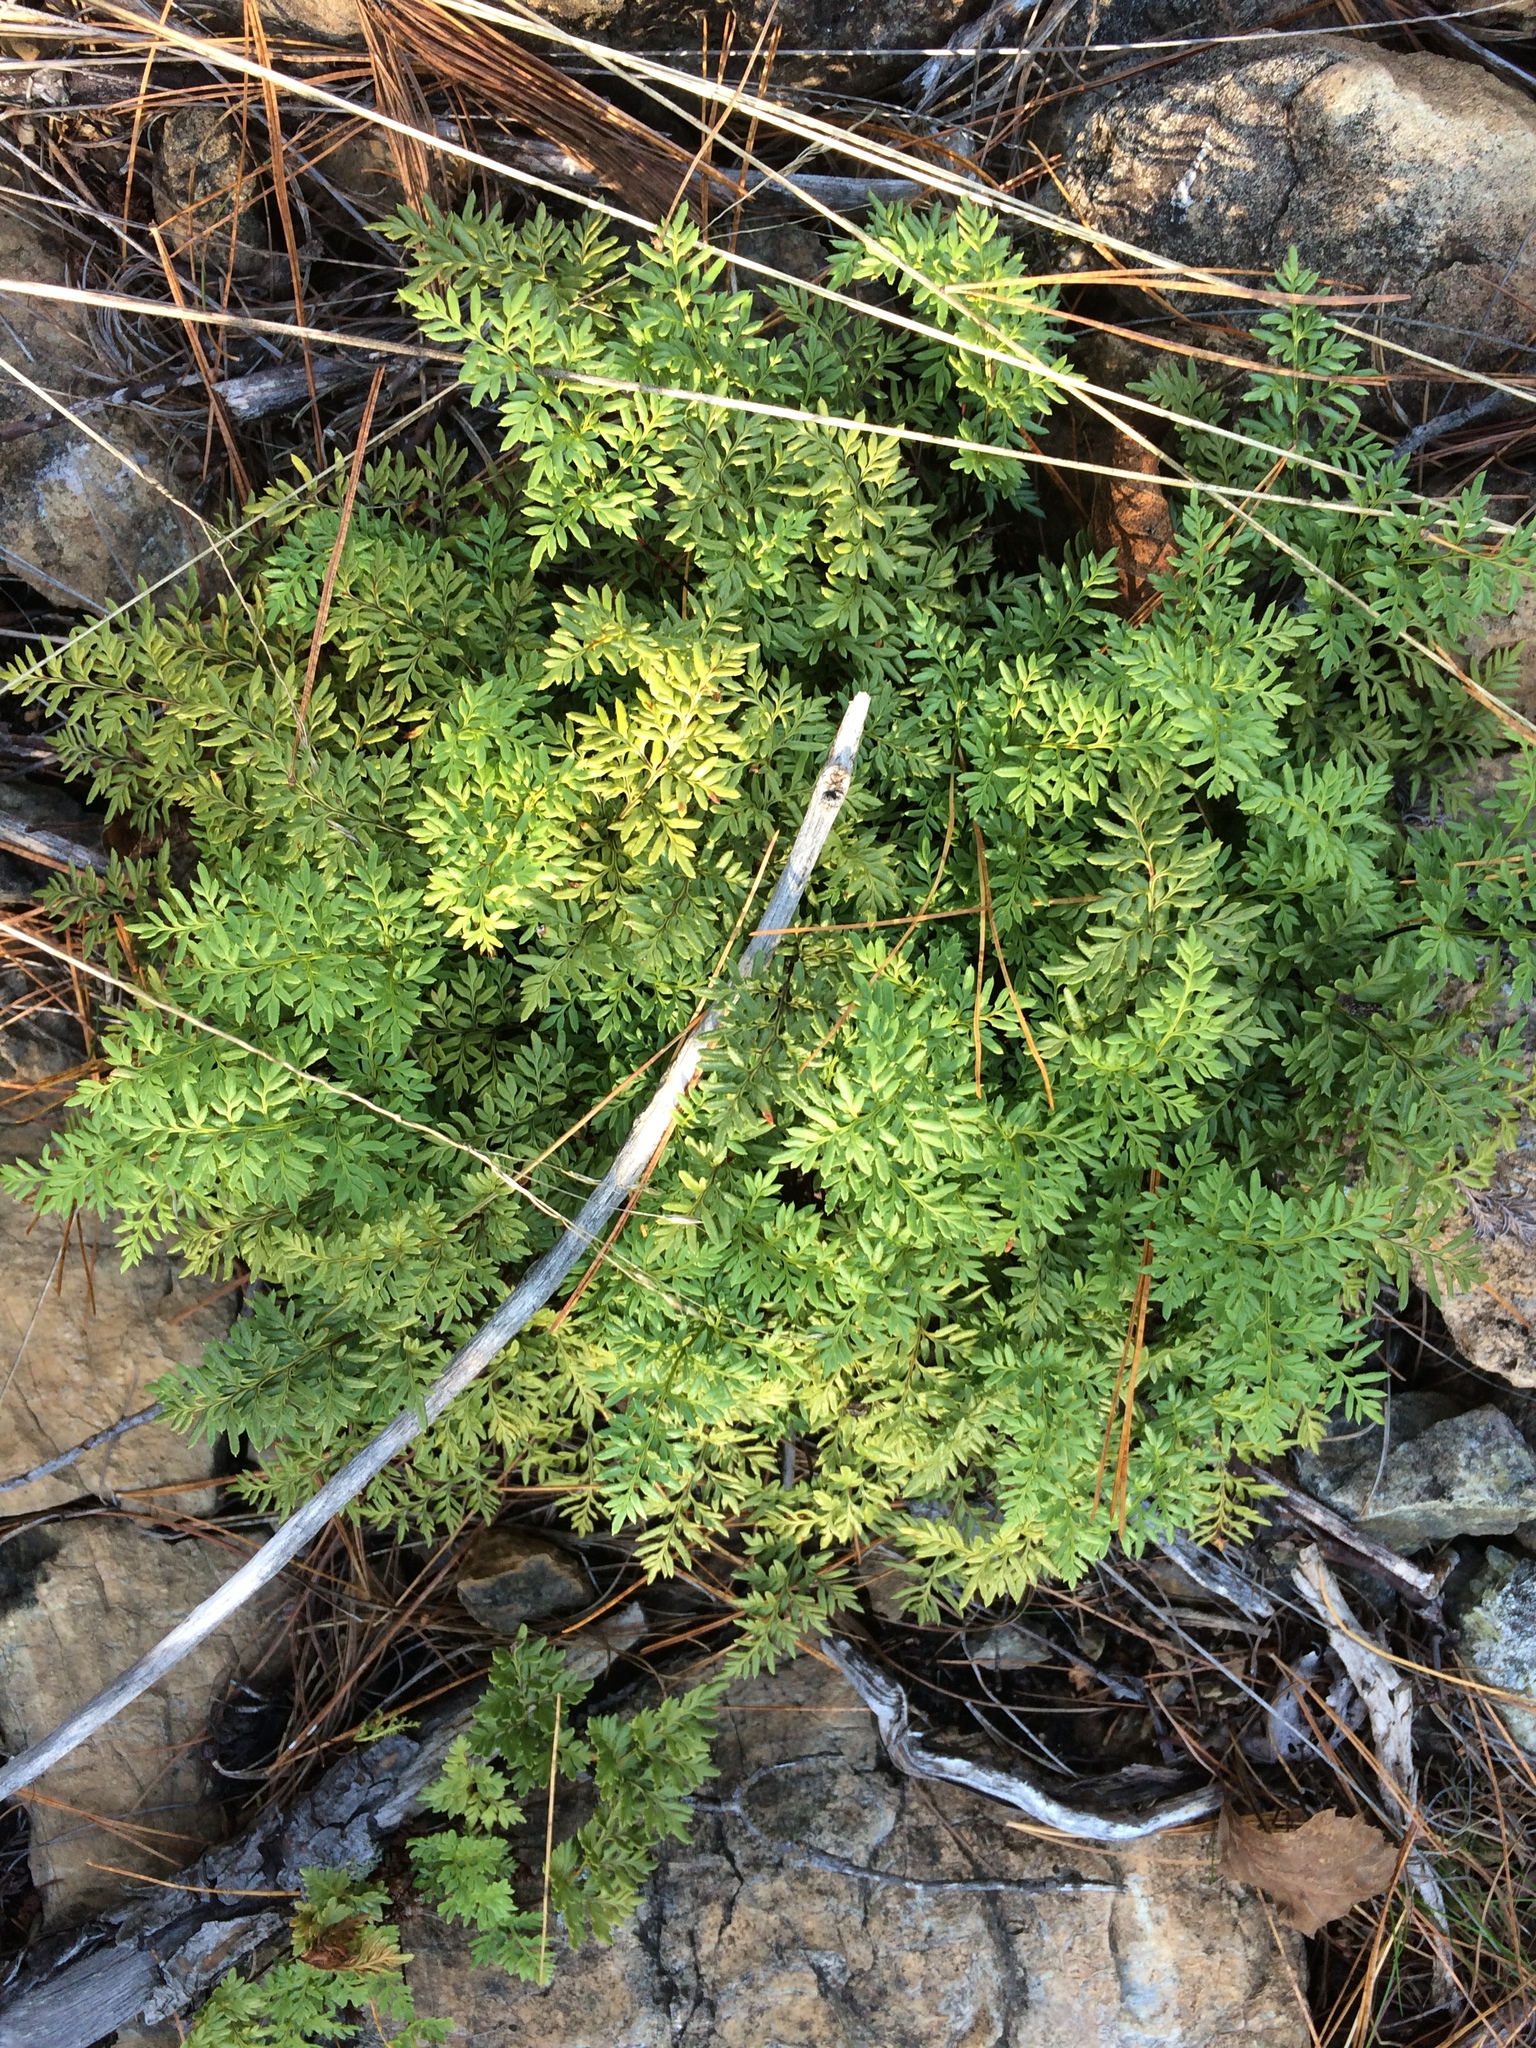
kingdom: Plantae
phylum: Tracheophyta
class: Polypodiopsida
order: Polypodiales
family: Pteridaceae
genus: Aspidotis
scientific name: Aspidotis densa
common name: Indian's dream
